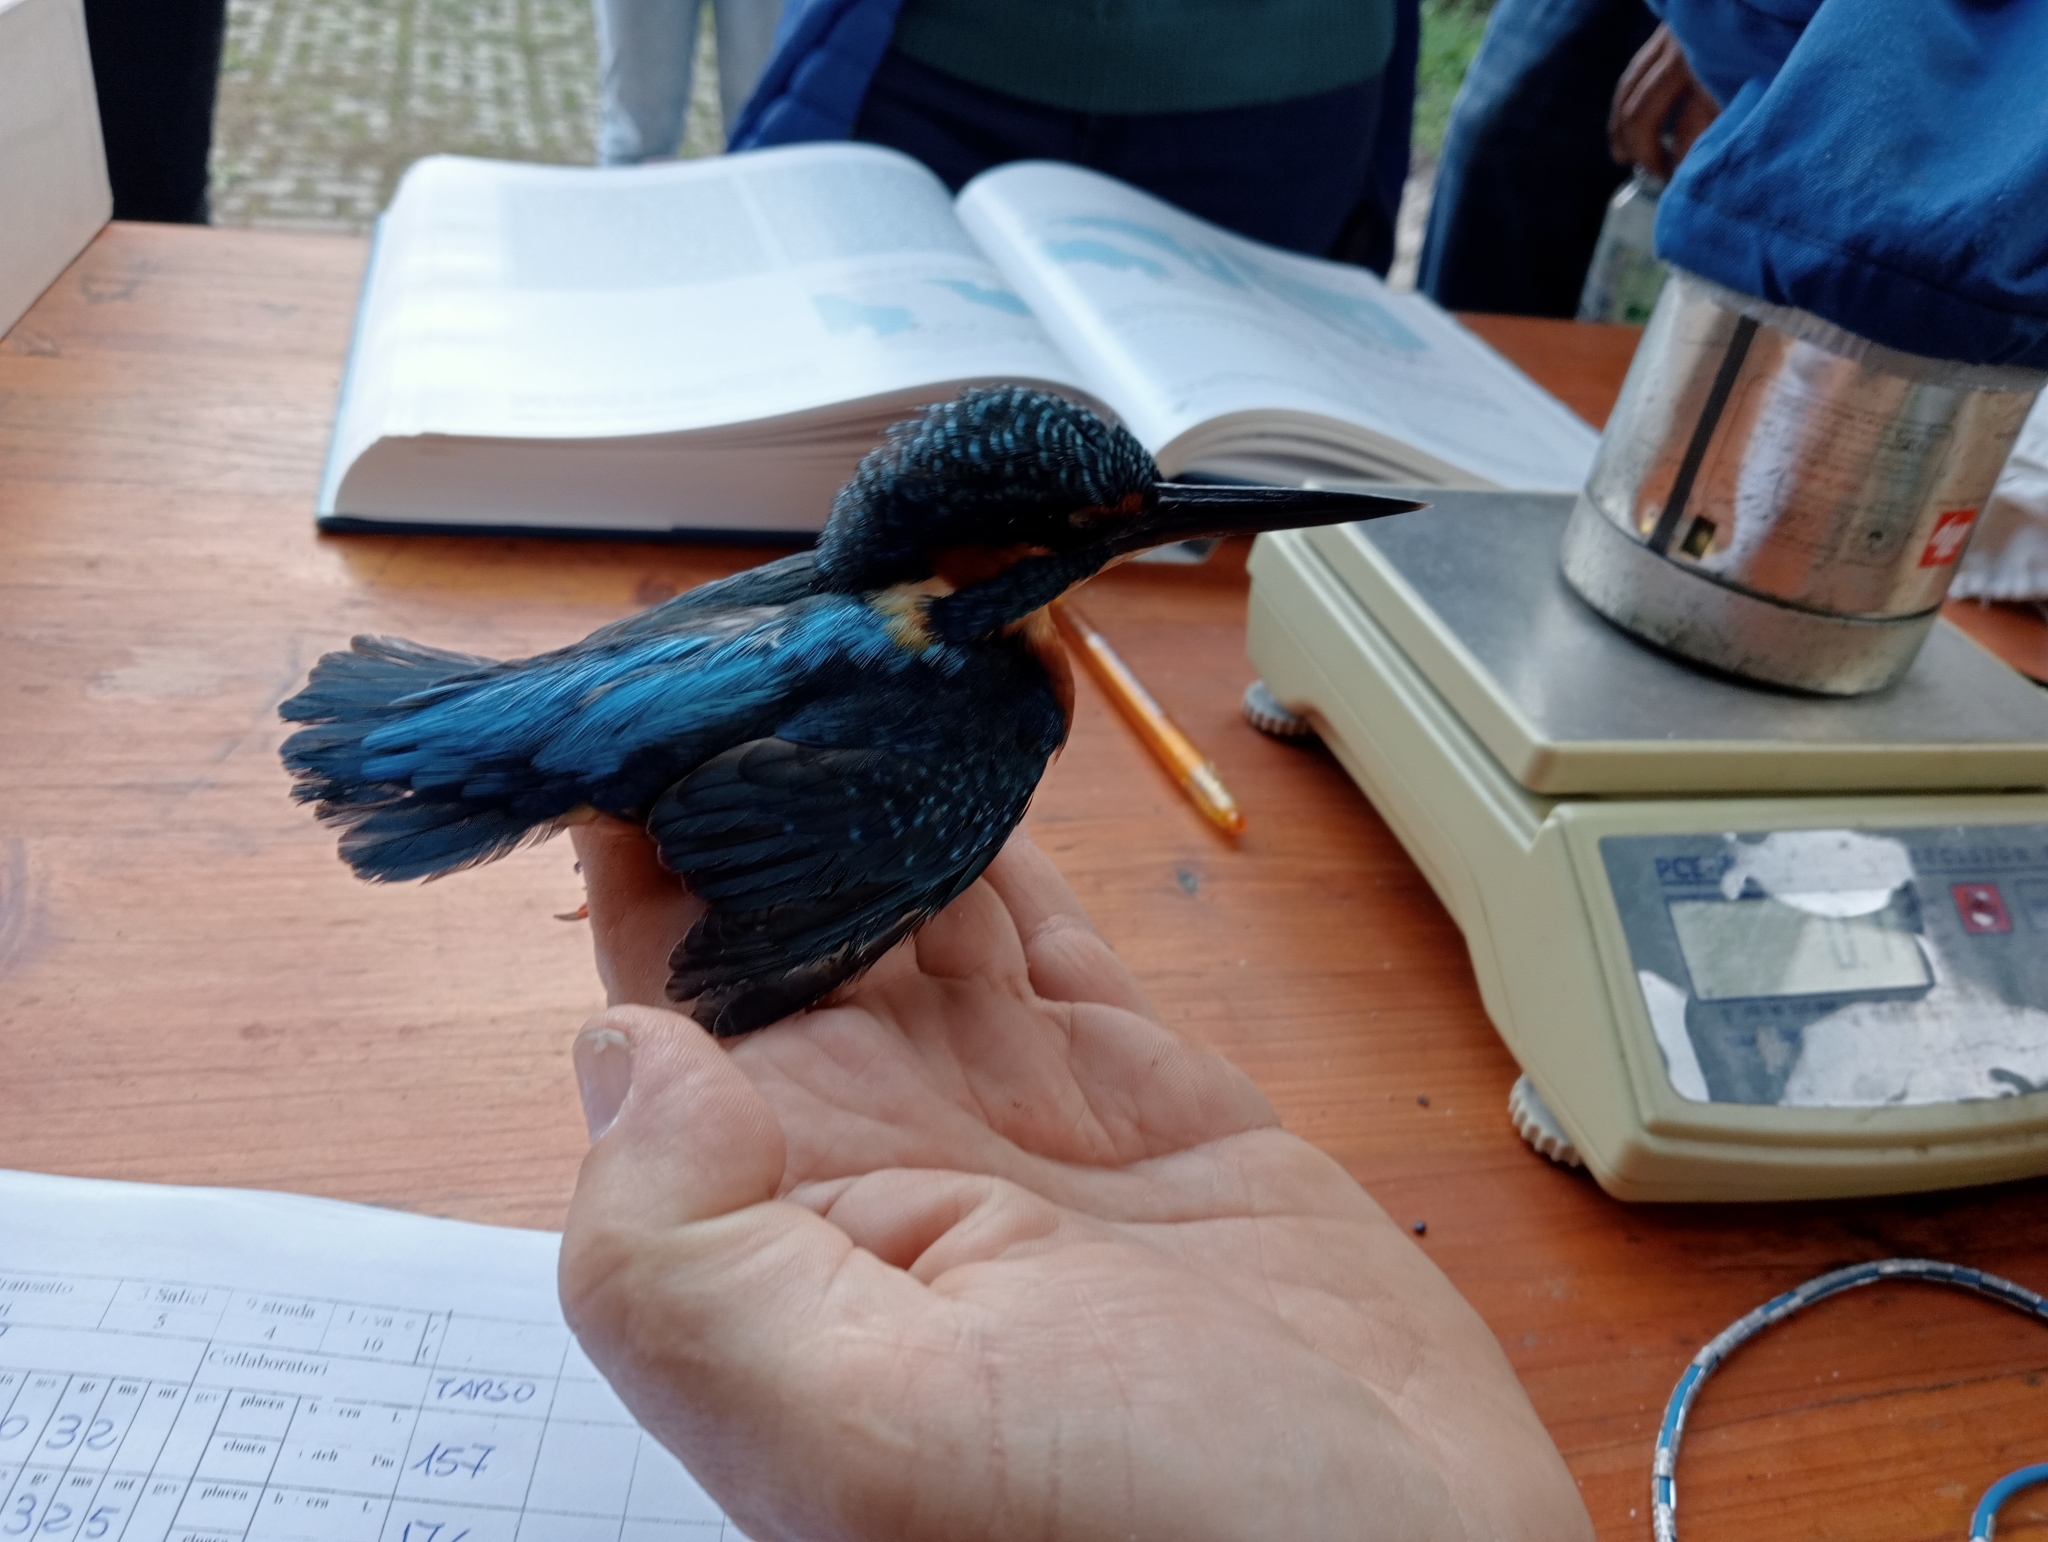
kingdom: Animalia
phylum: Chordata
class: Aves
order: Coraciiformes
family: Alcedinidae
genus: Alcedo
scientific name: Alcedo atthis
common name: Common kingfisher
